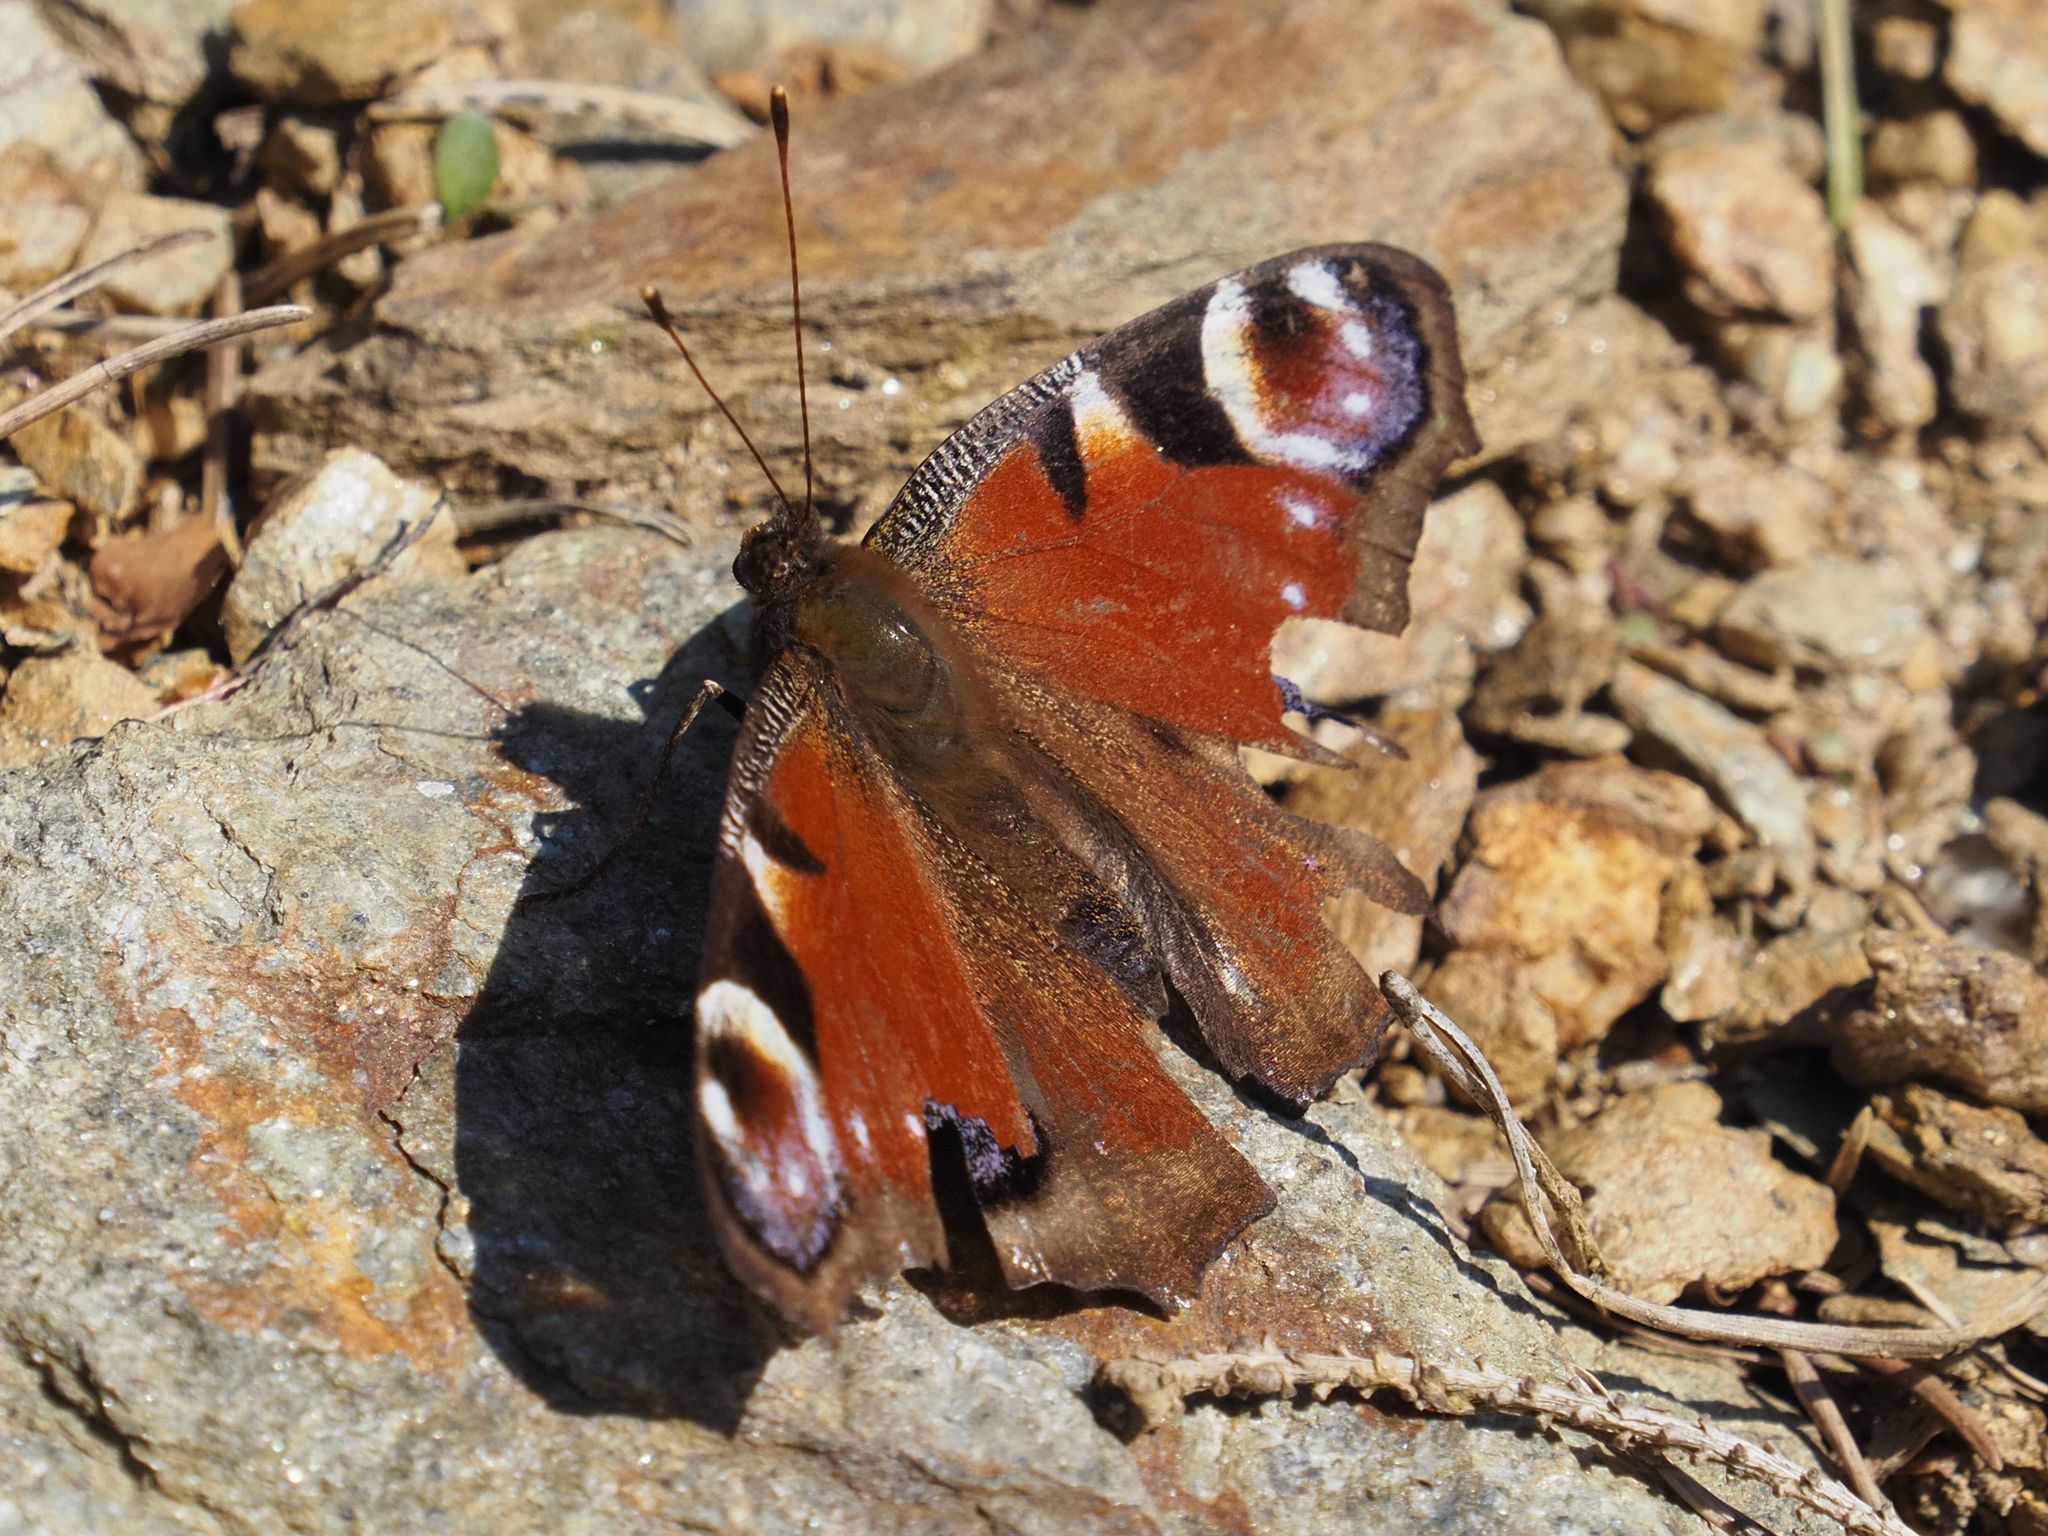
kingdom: Animalia
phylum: Arthropoda
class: Insecta
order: Lepidoptera
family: Nymphalidae
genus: Aglais
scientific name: Aglais io
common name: Peacock
